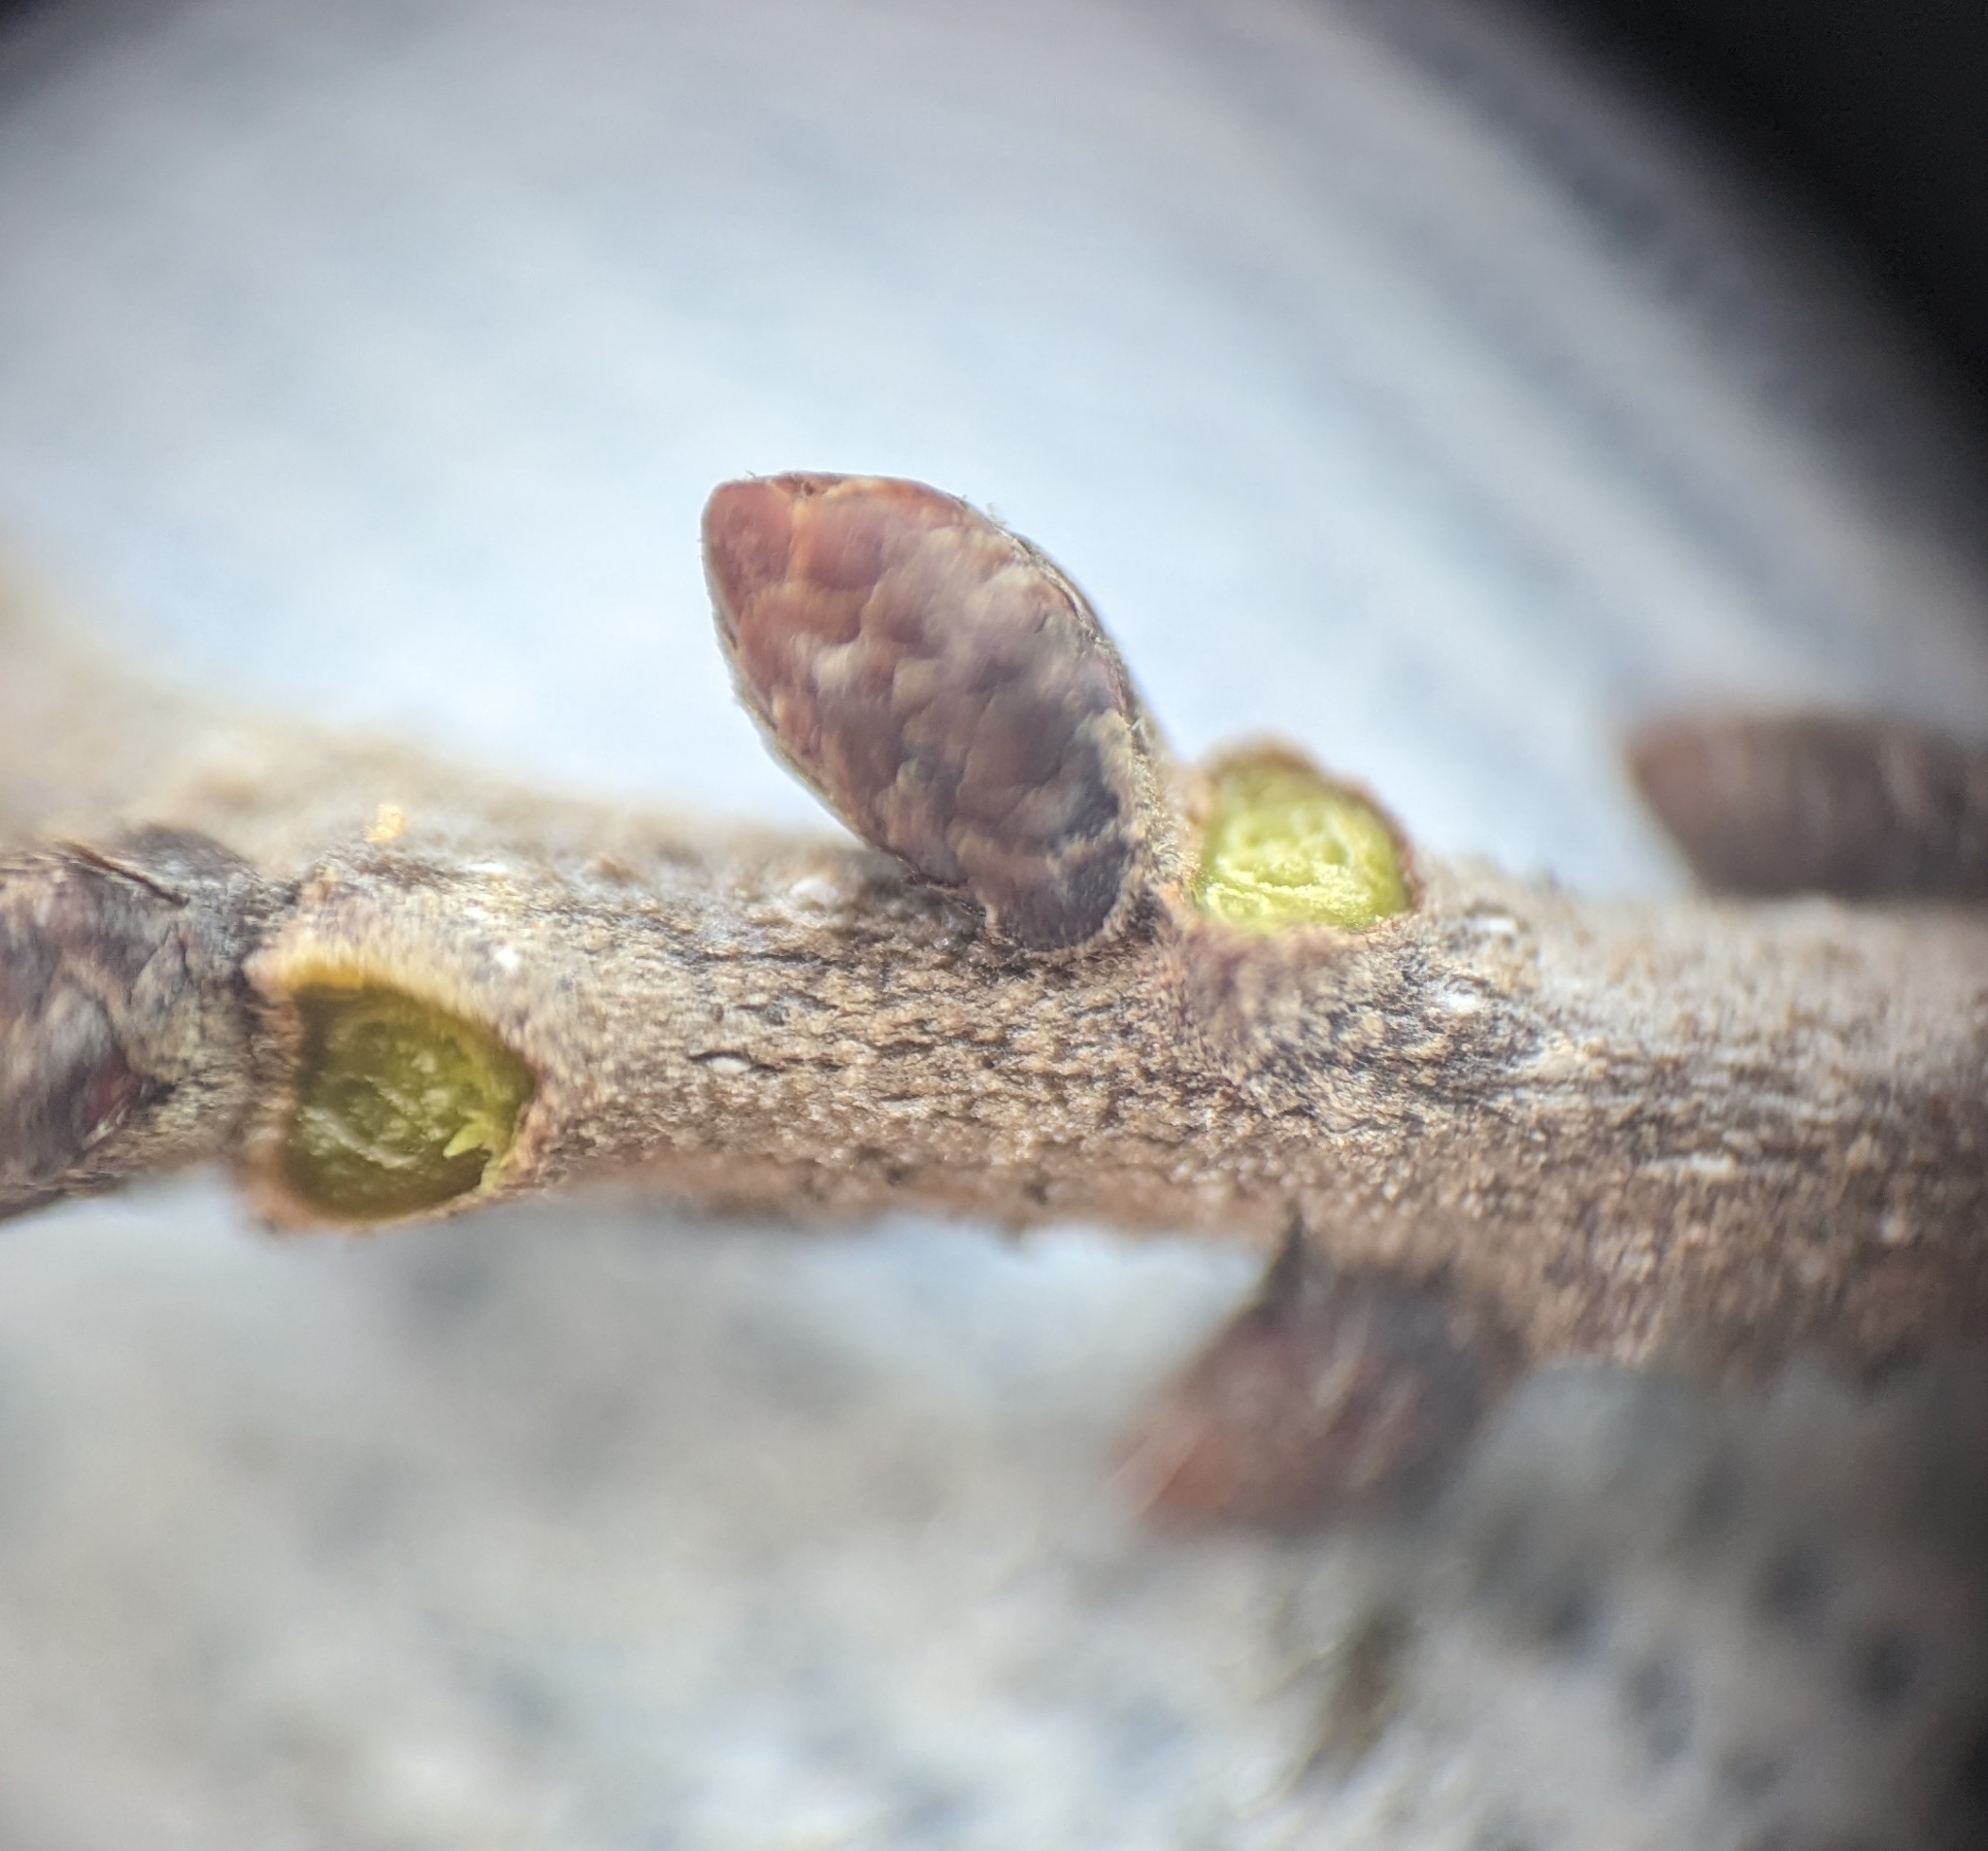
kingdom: Plantae
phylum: Tracheophyta
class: Magnoliopsida
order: Fagales
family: Fagaceae
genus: Quercus
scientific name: Quercus chapmanii
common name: Chapman oak
